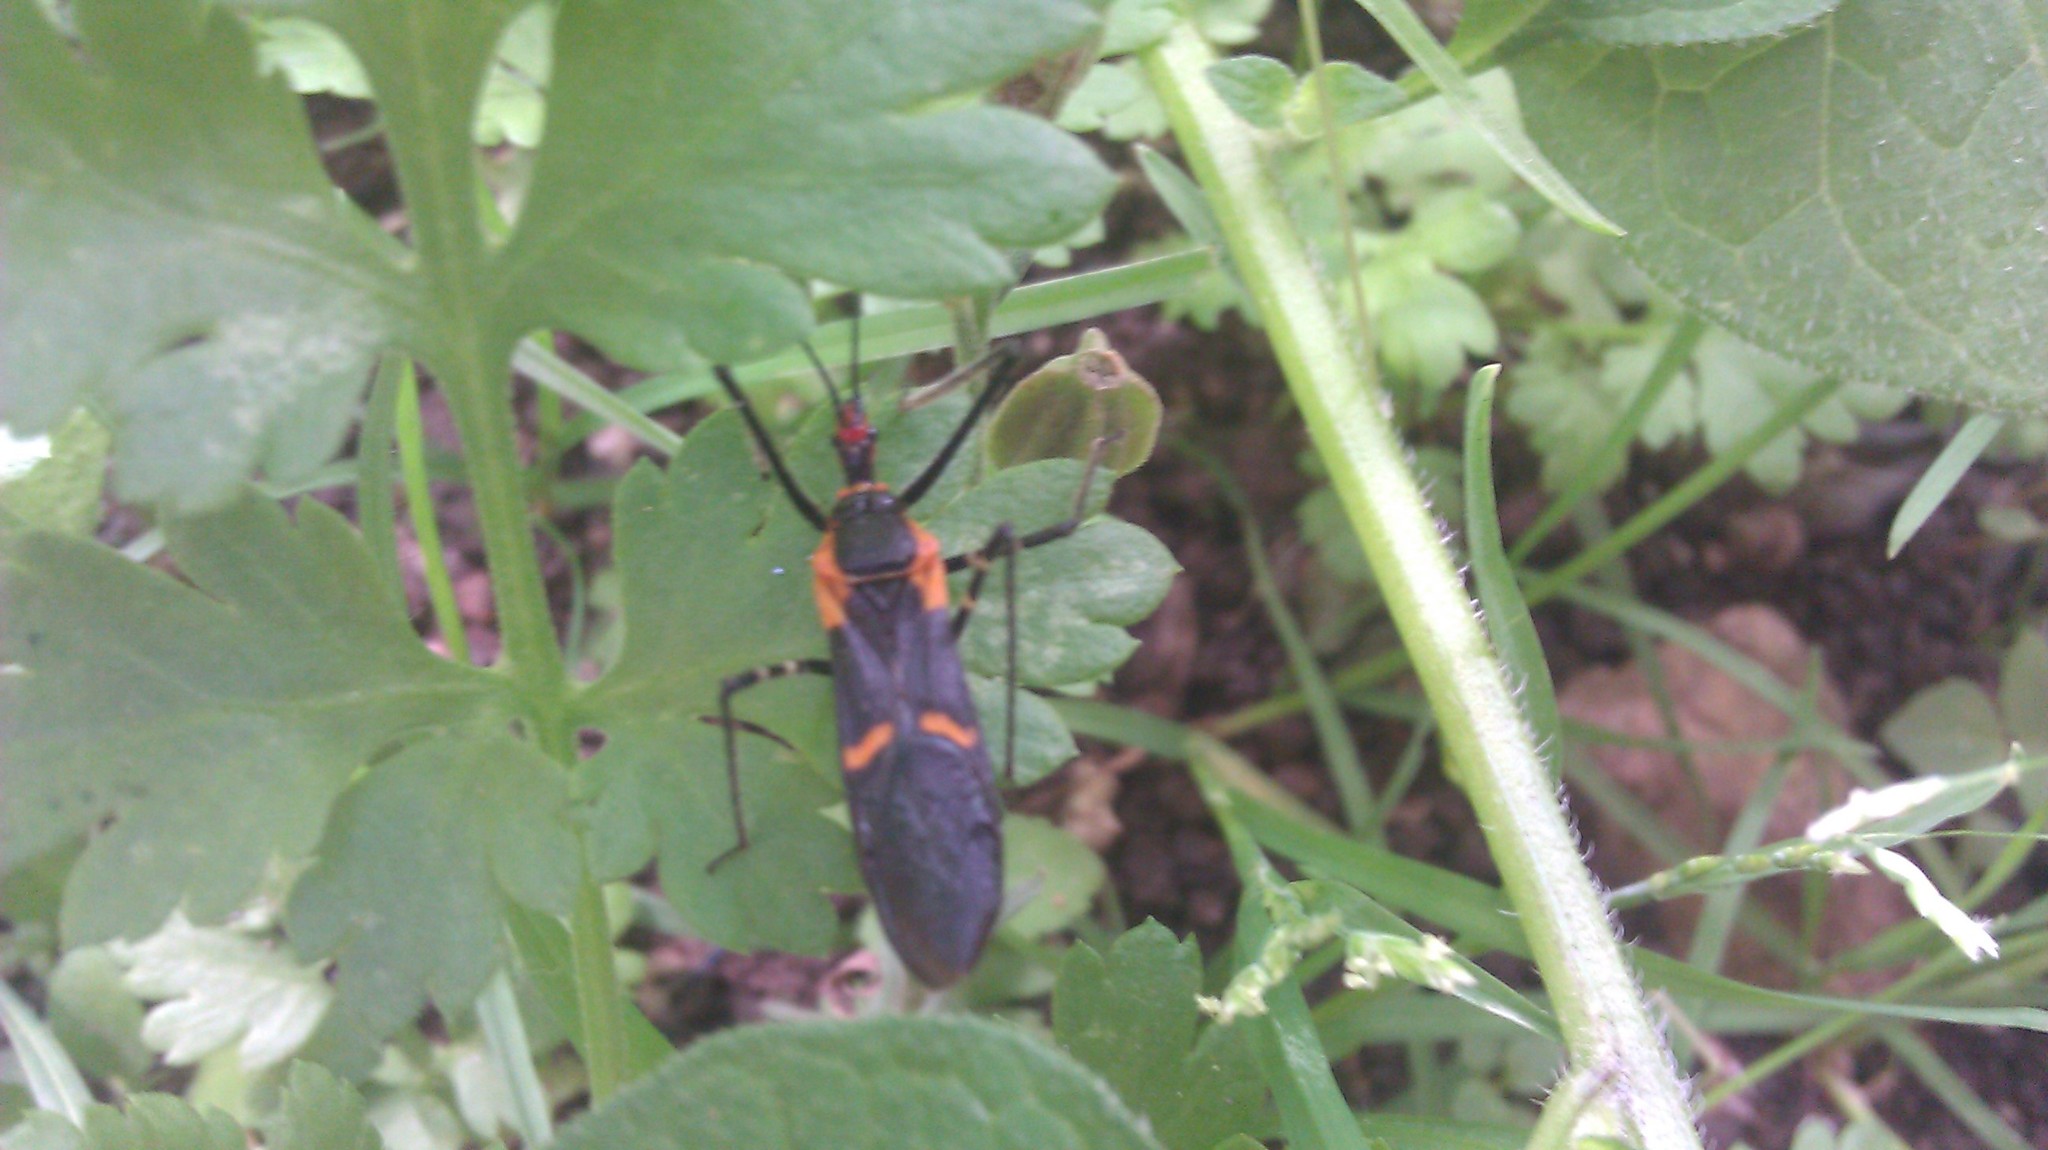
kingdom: Animalia
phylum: Arthropoda
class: Insecta
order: Hemiptera
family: Reduviidae
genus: Zelus
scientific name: Zelus longipes
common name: Milkweed assassin bug
